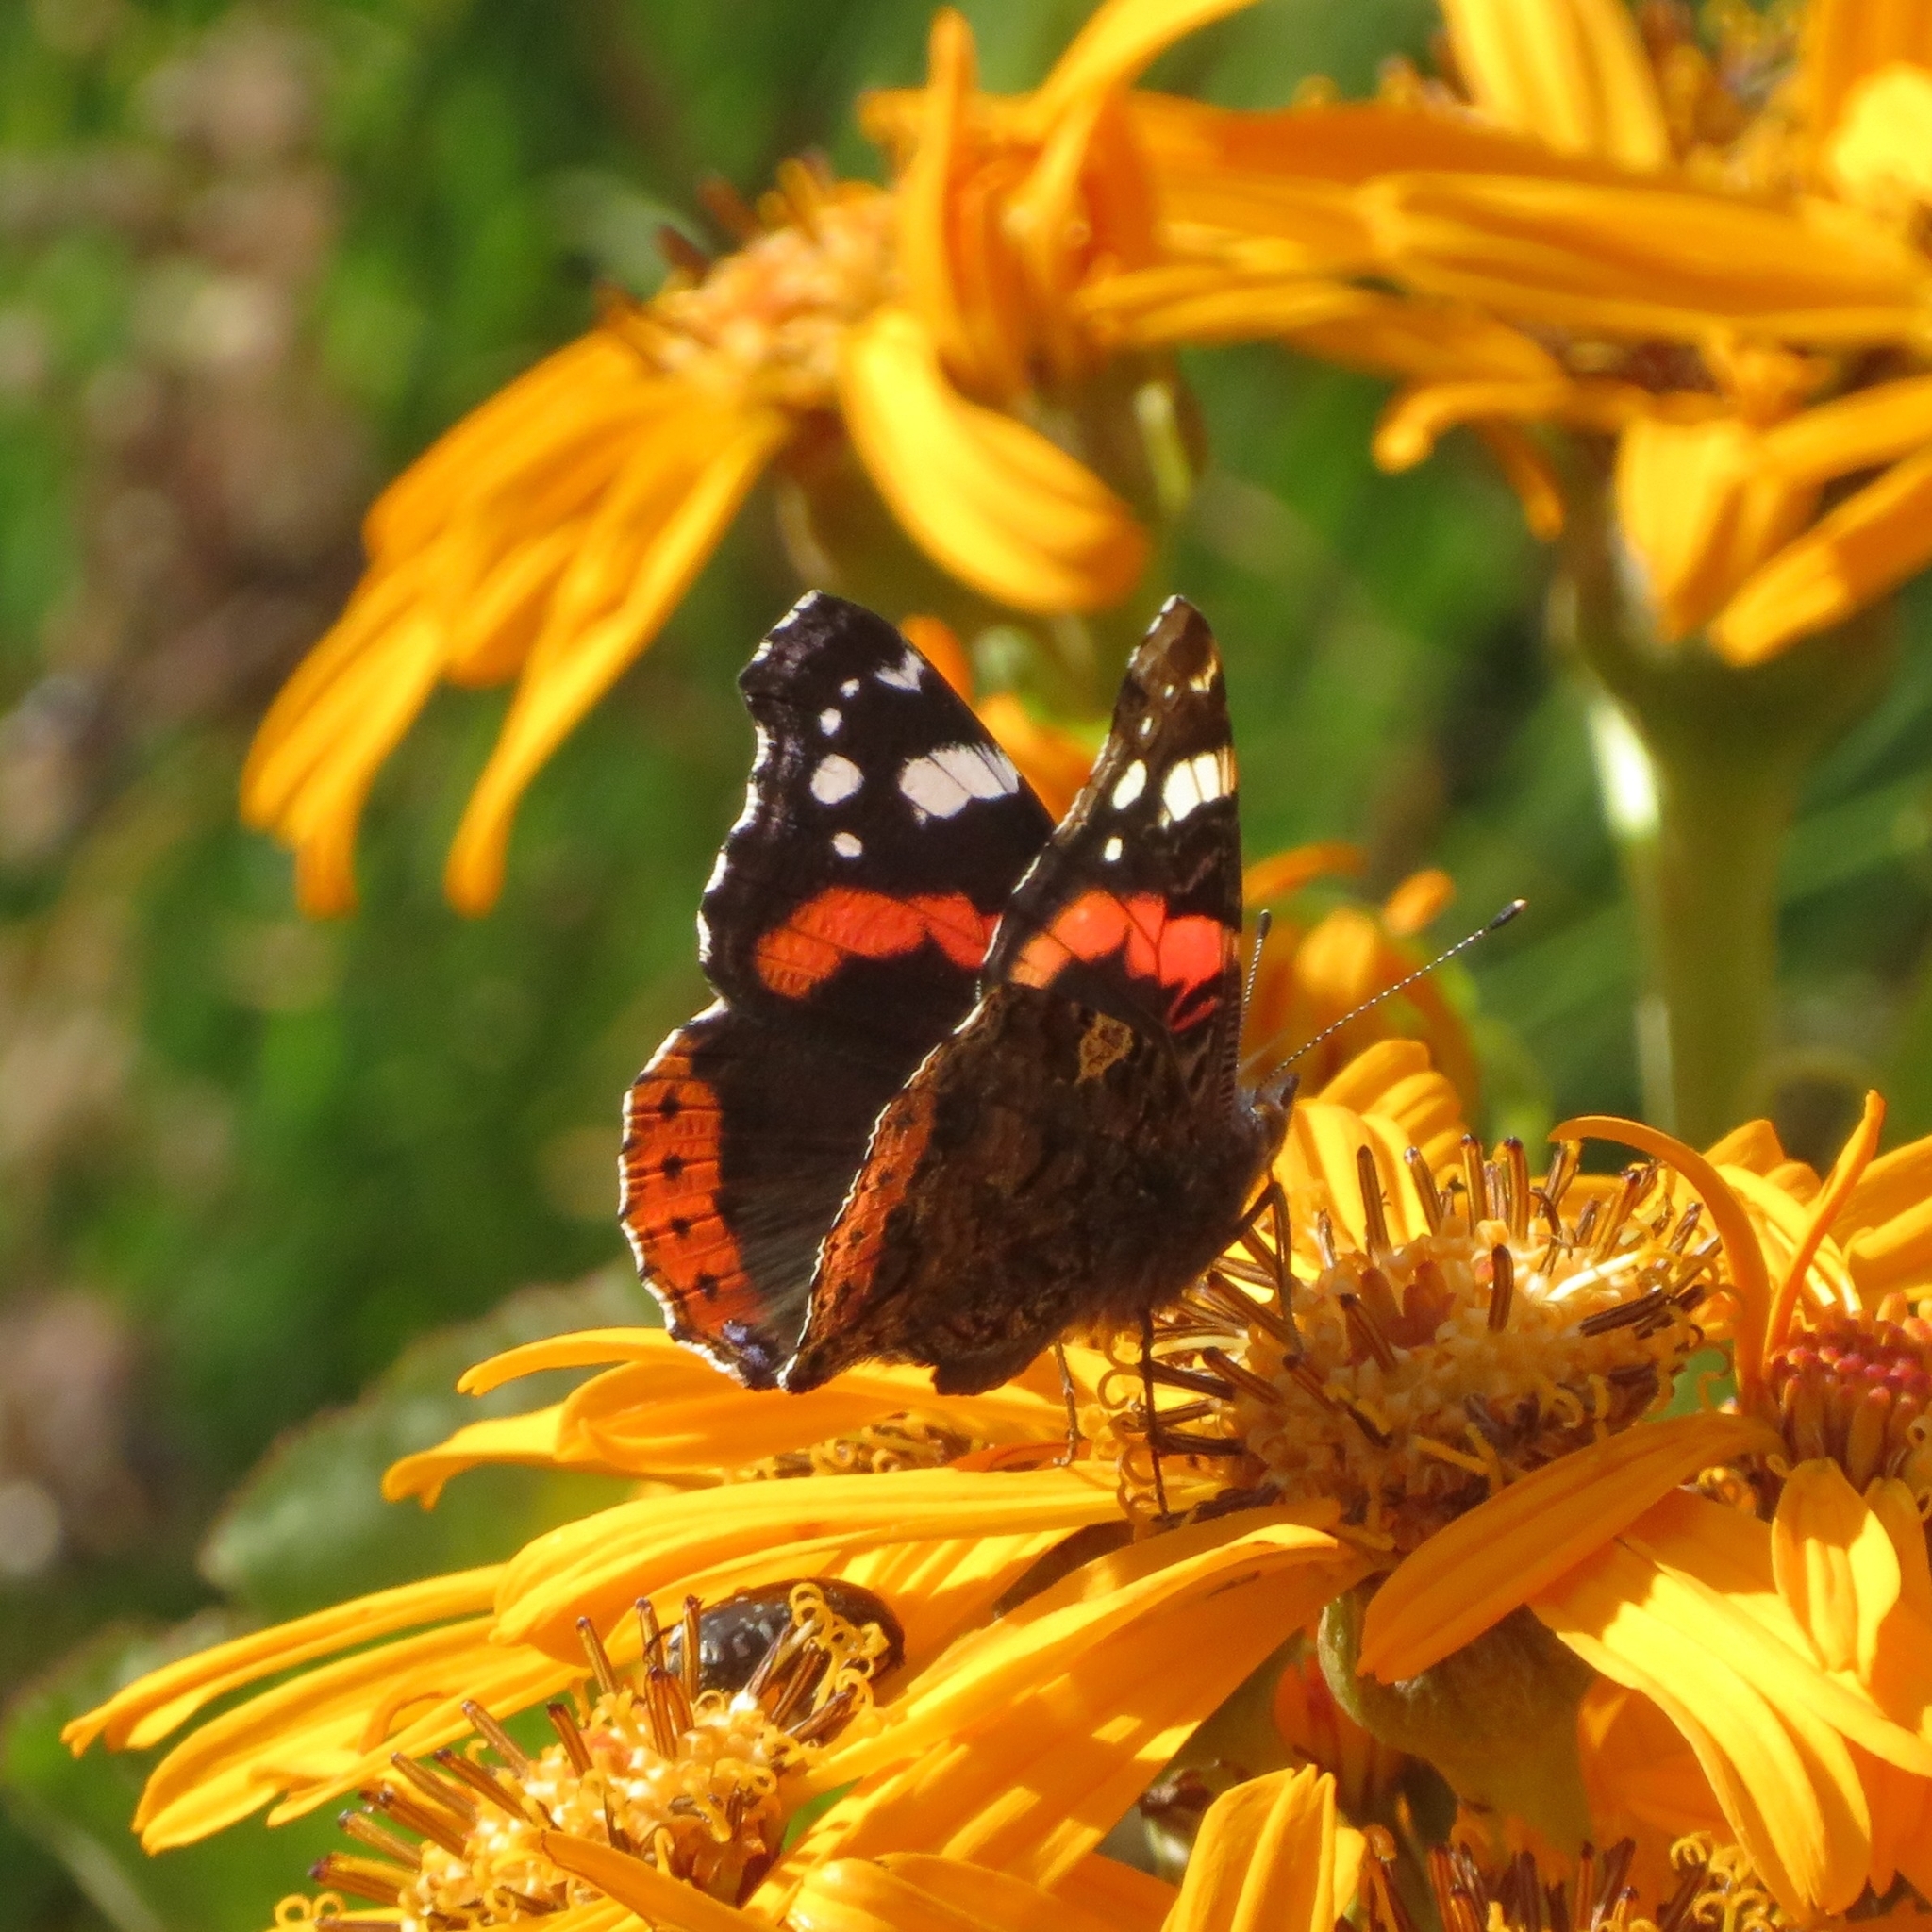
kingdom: Animalia
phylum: Arthropoda
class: Insecta
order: Lepidoptera
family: Nymphalidae
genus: Vanessa
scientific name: Vanessa atalanta
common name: Red admiral
